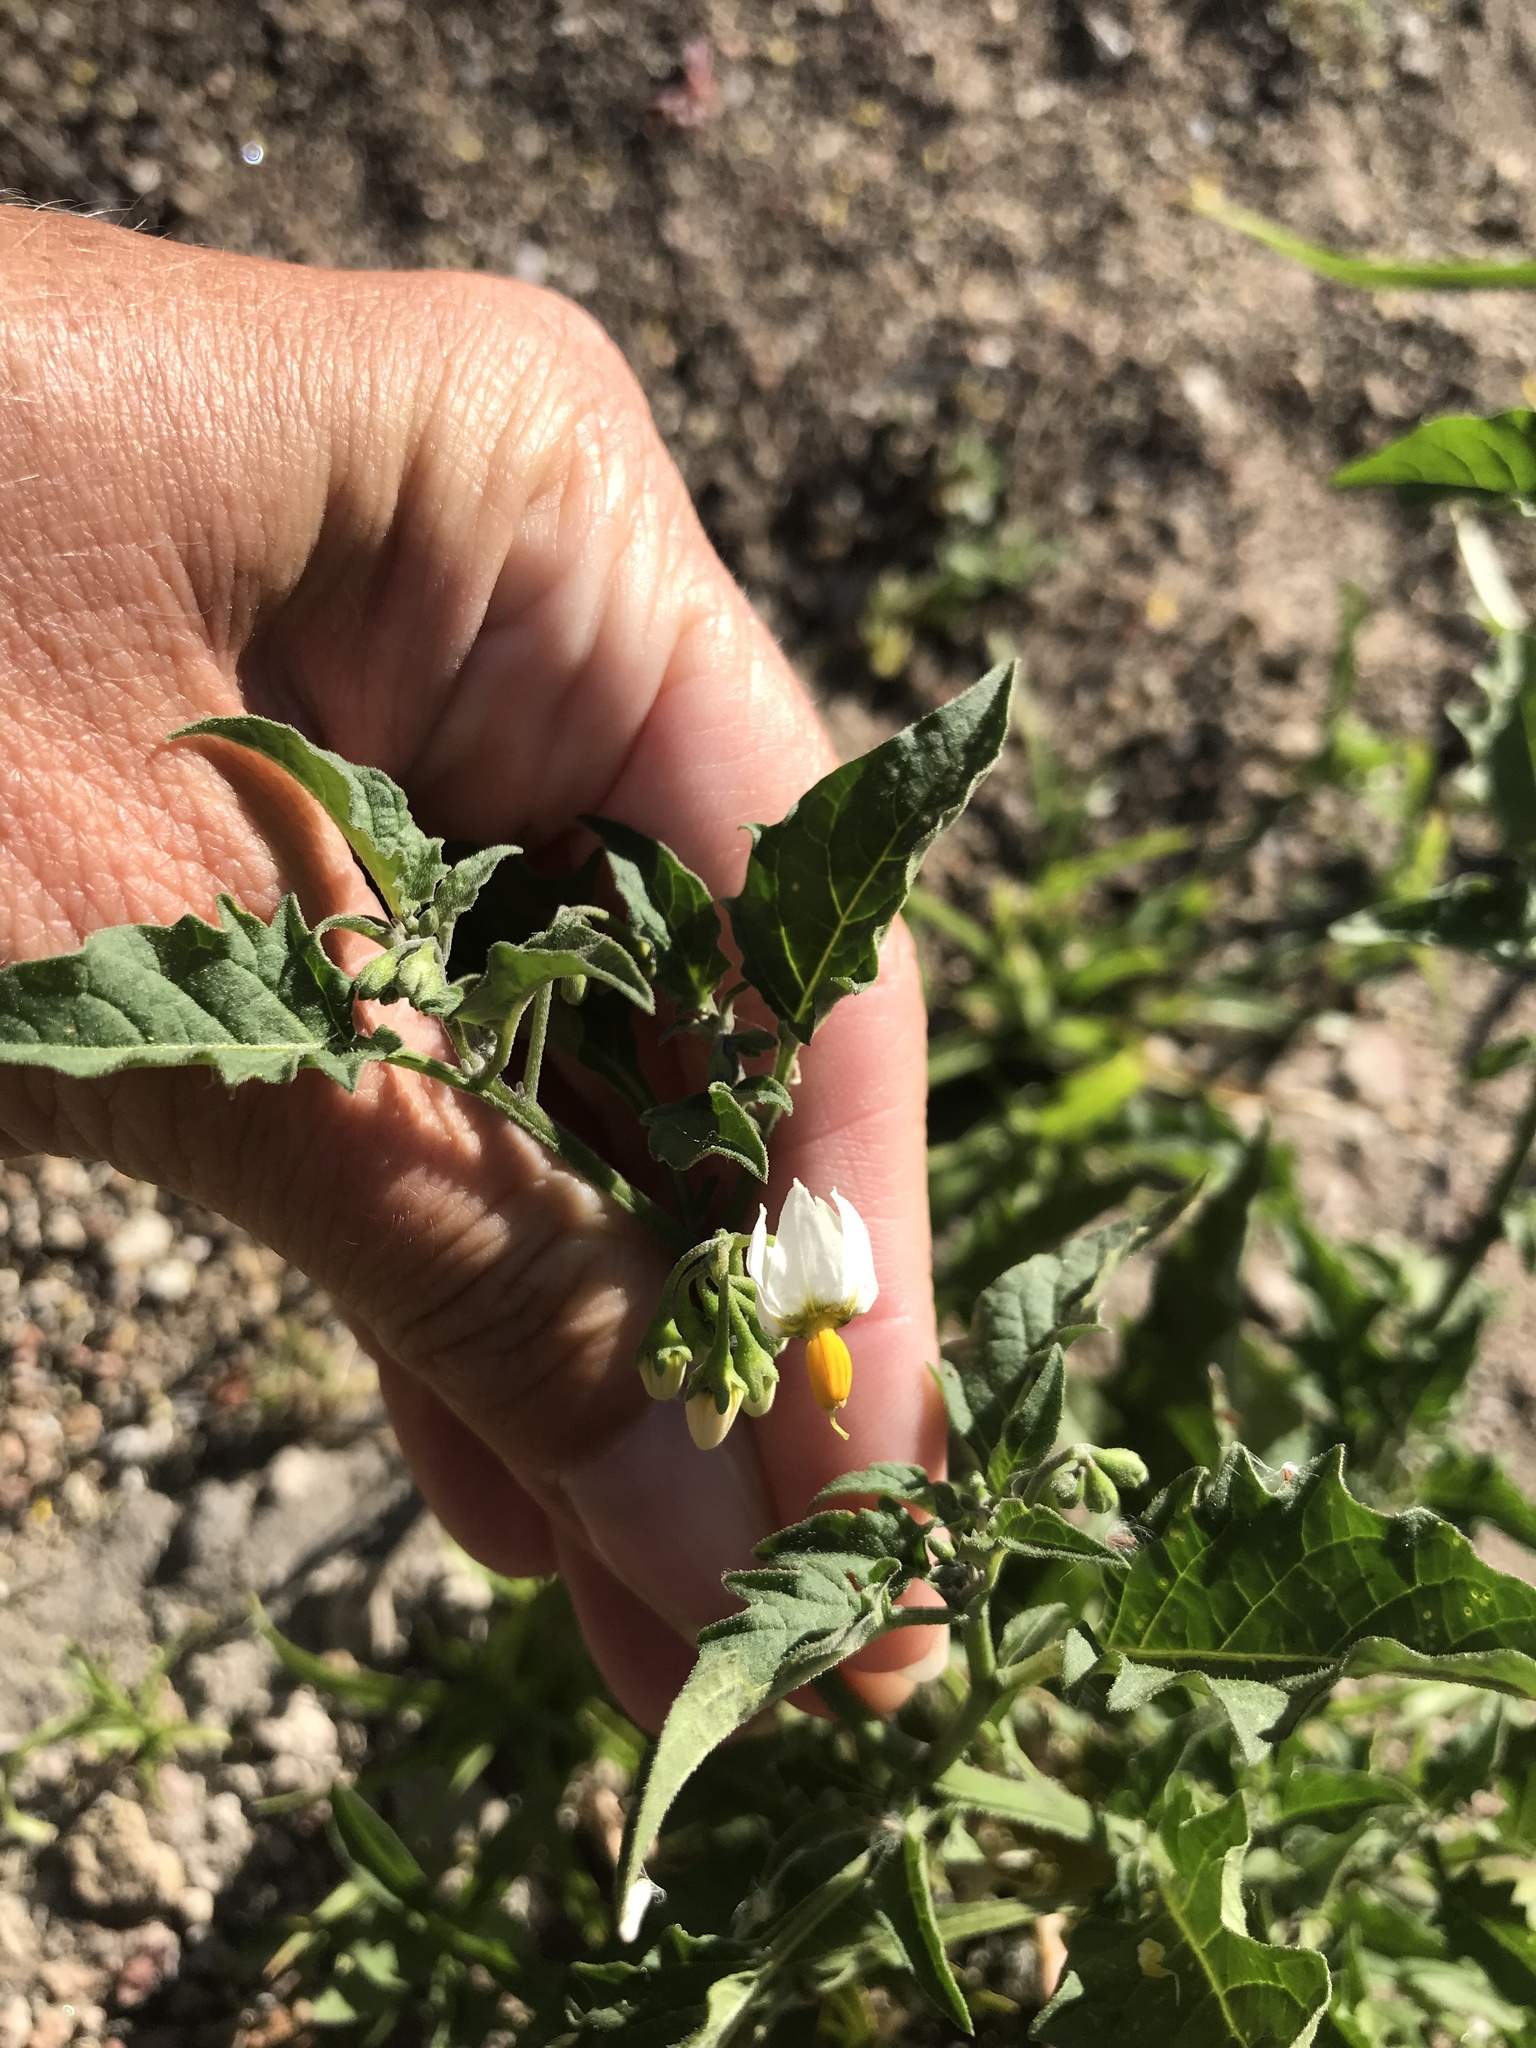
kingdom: Plantae
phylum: Tracheophyta
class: Magnoliopsida
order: Solanales
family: Solanaceae
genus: Solanum
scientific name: Solanum douglasii
